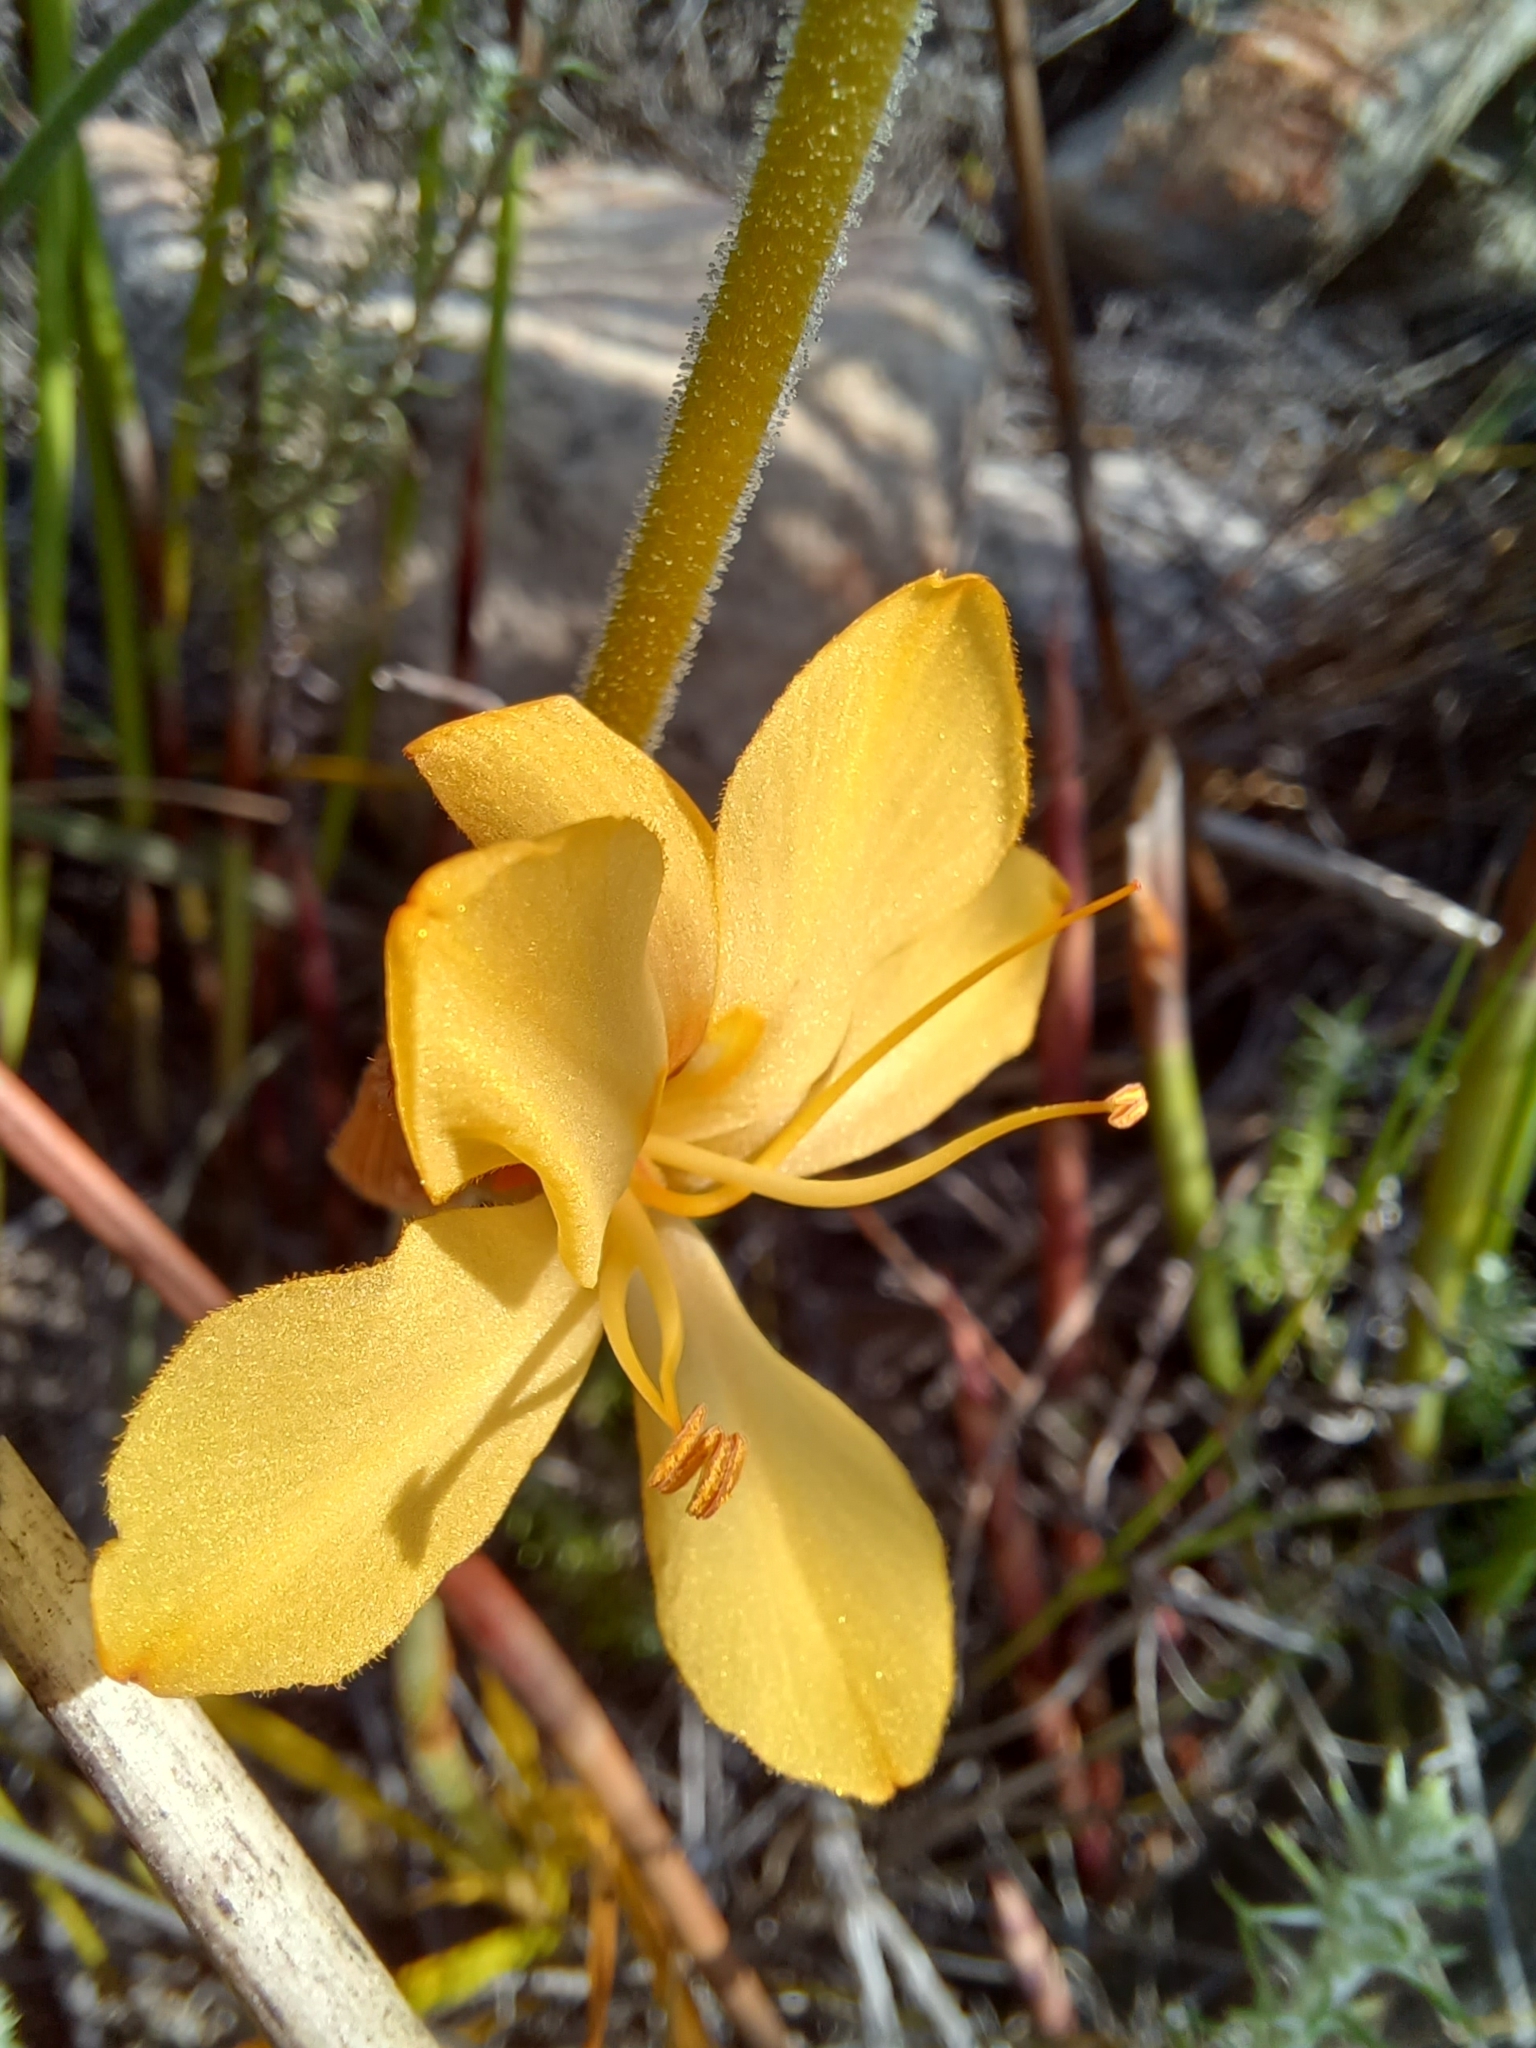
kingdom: Plantae
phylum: Tracheophyta
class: Liliopsida
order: Commelinales
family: Haemodoraceae
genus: Wachendorfia
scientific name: Wachendorfia paniculata
